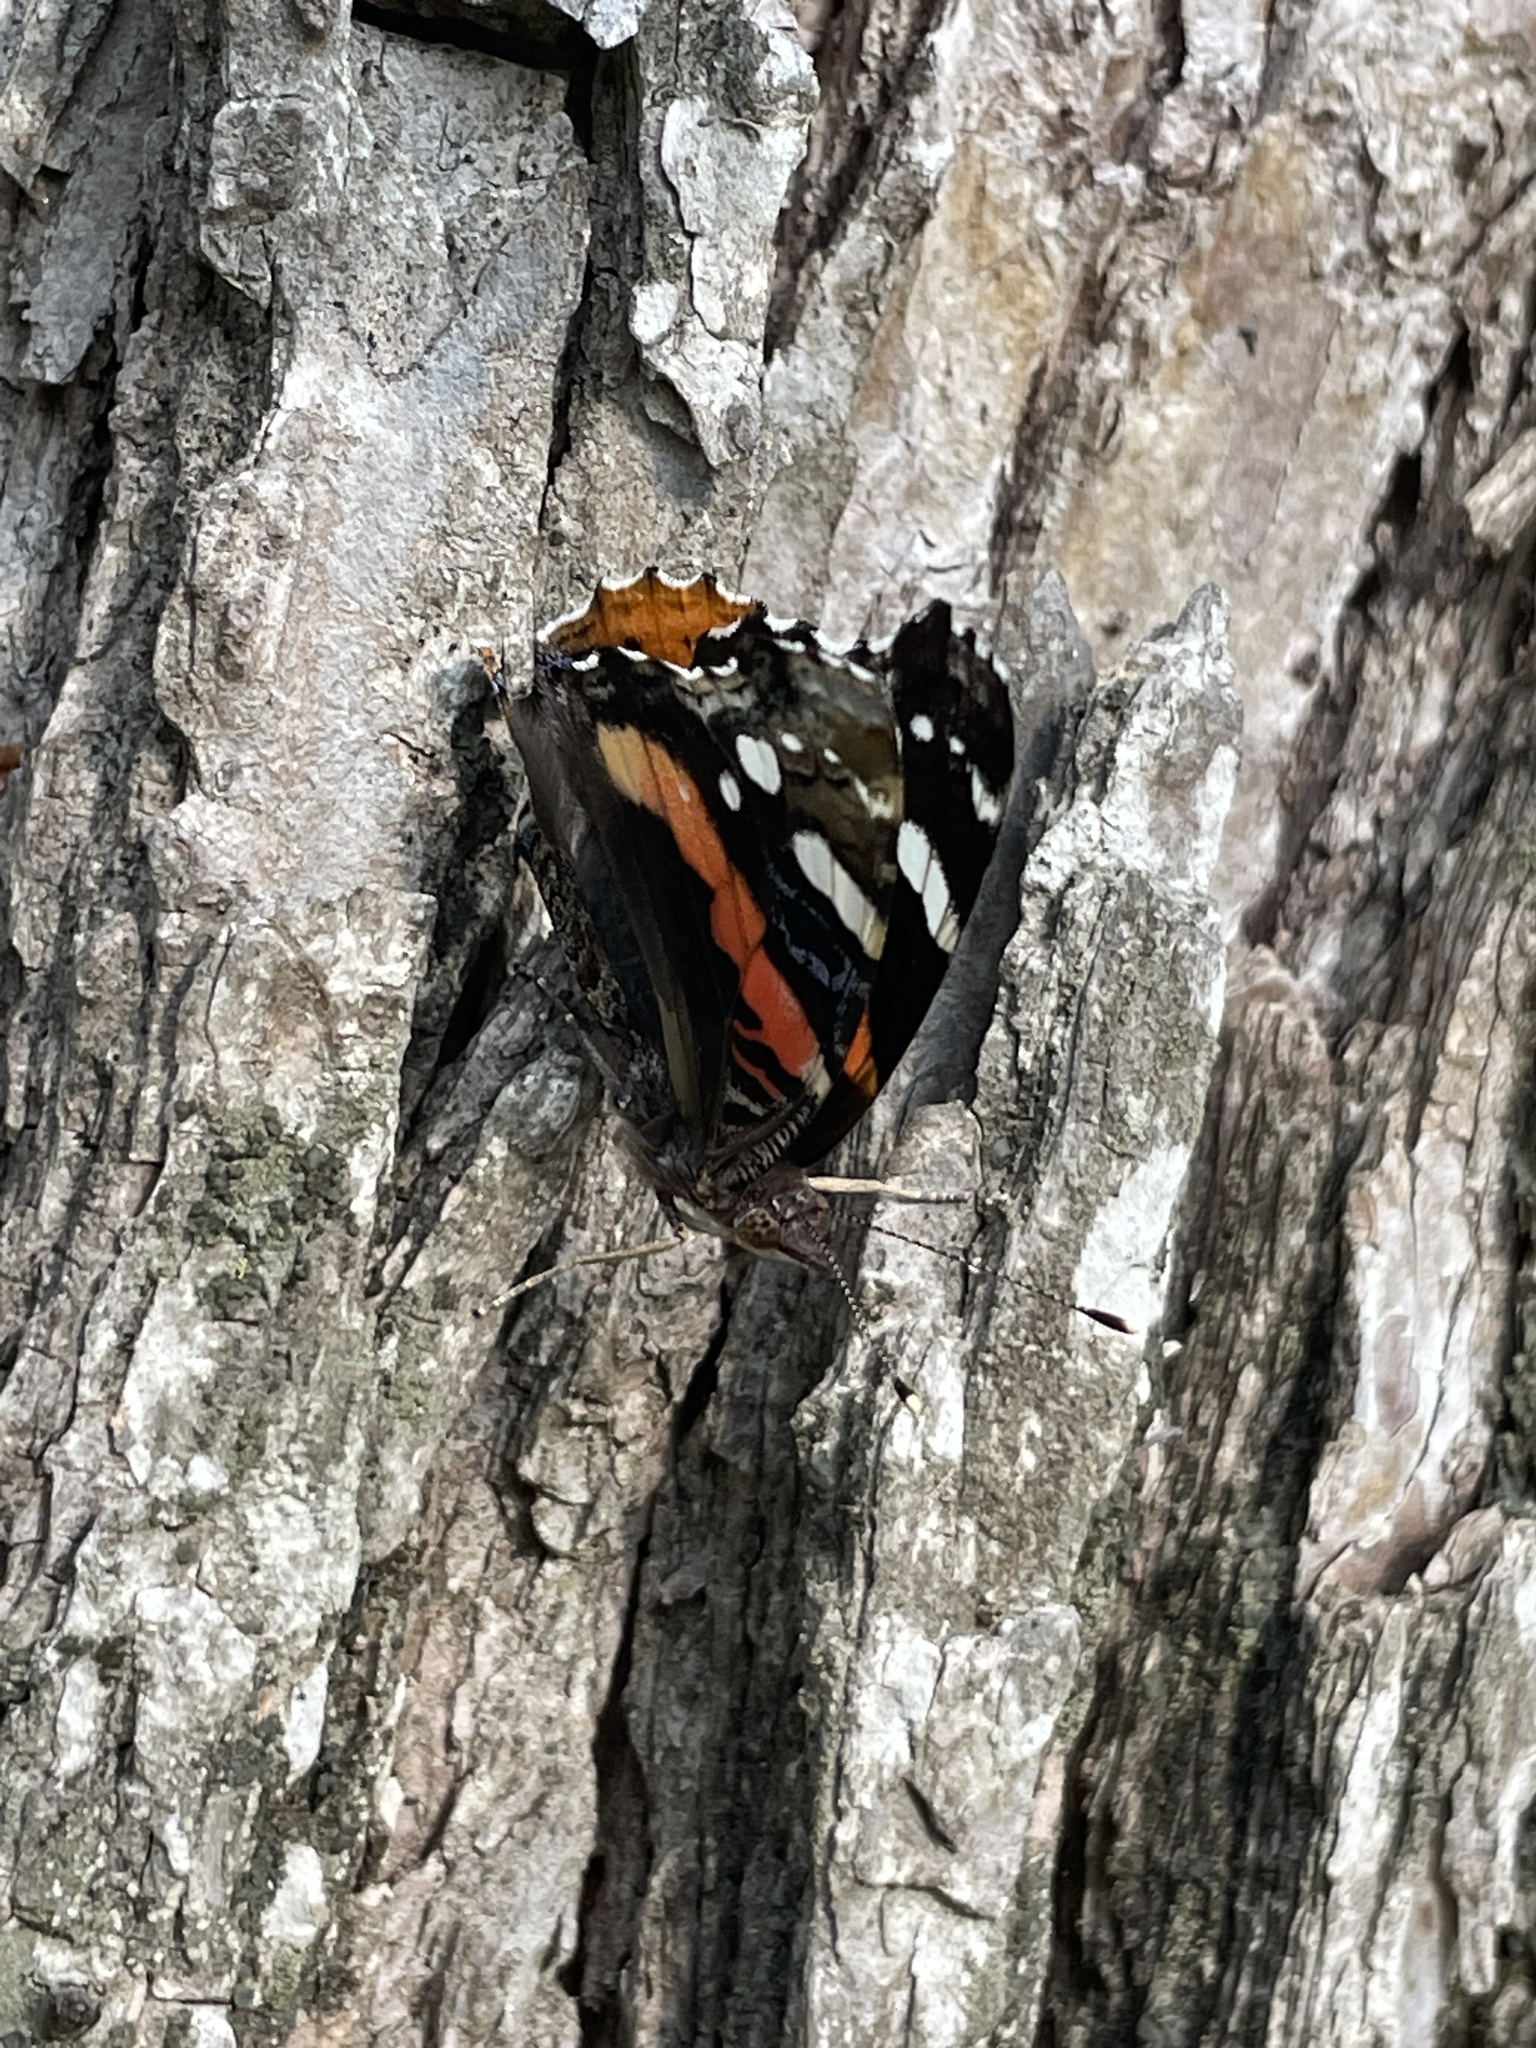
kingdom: Animalia
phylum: Arthropoda
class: Insecta
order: Lepidoptera
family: Nymphalidae
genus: Vanessa
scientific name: Vanessa atalanta
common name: Red admiral
